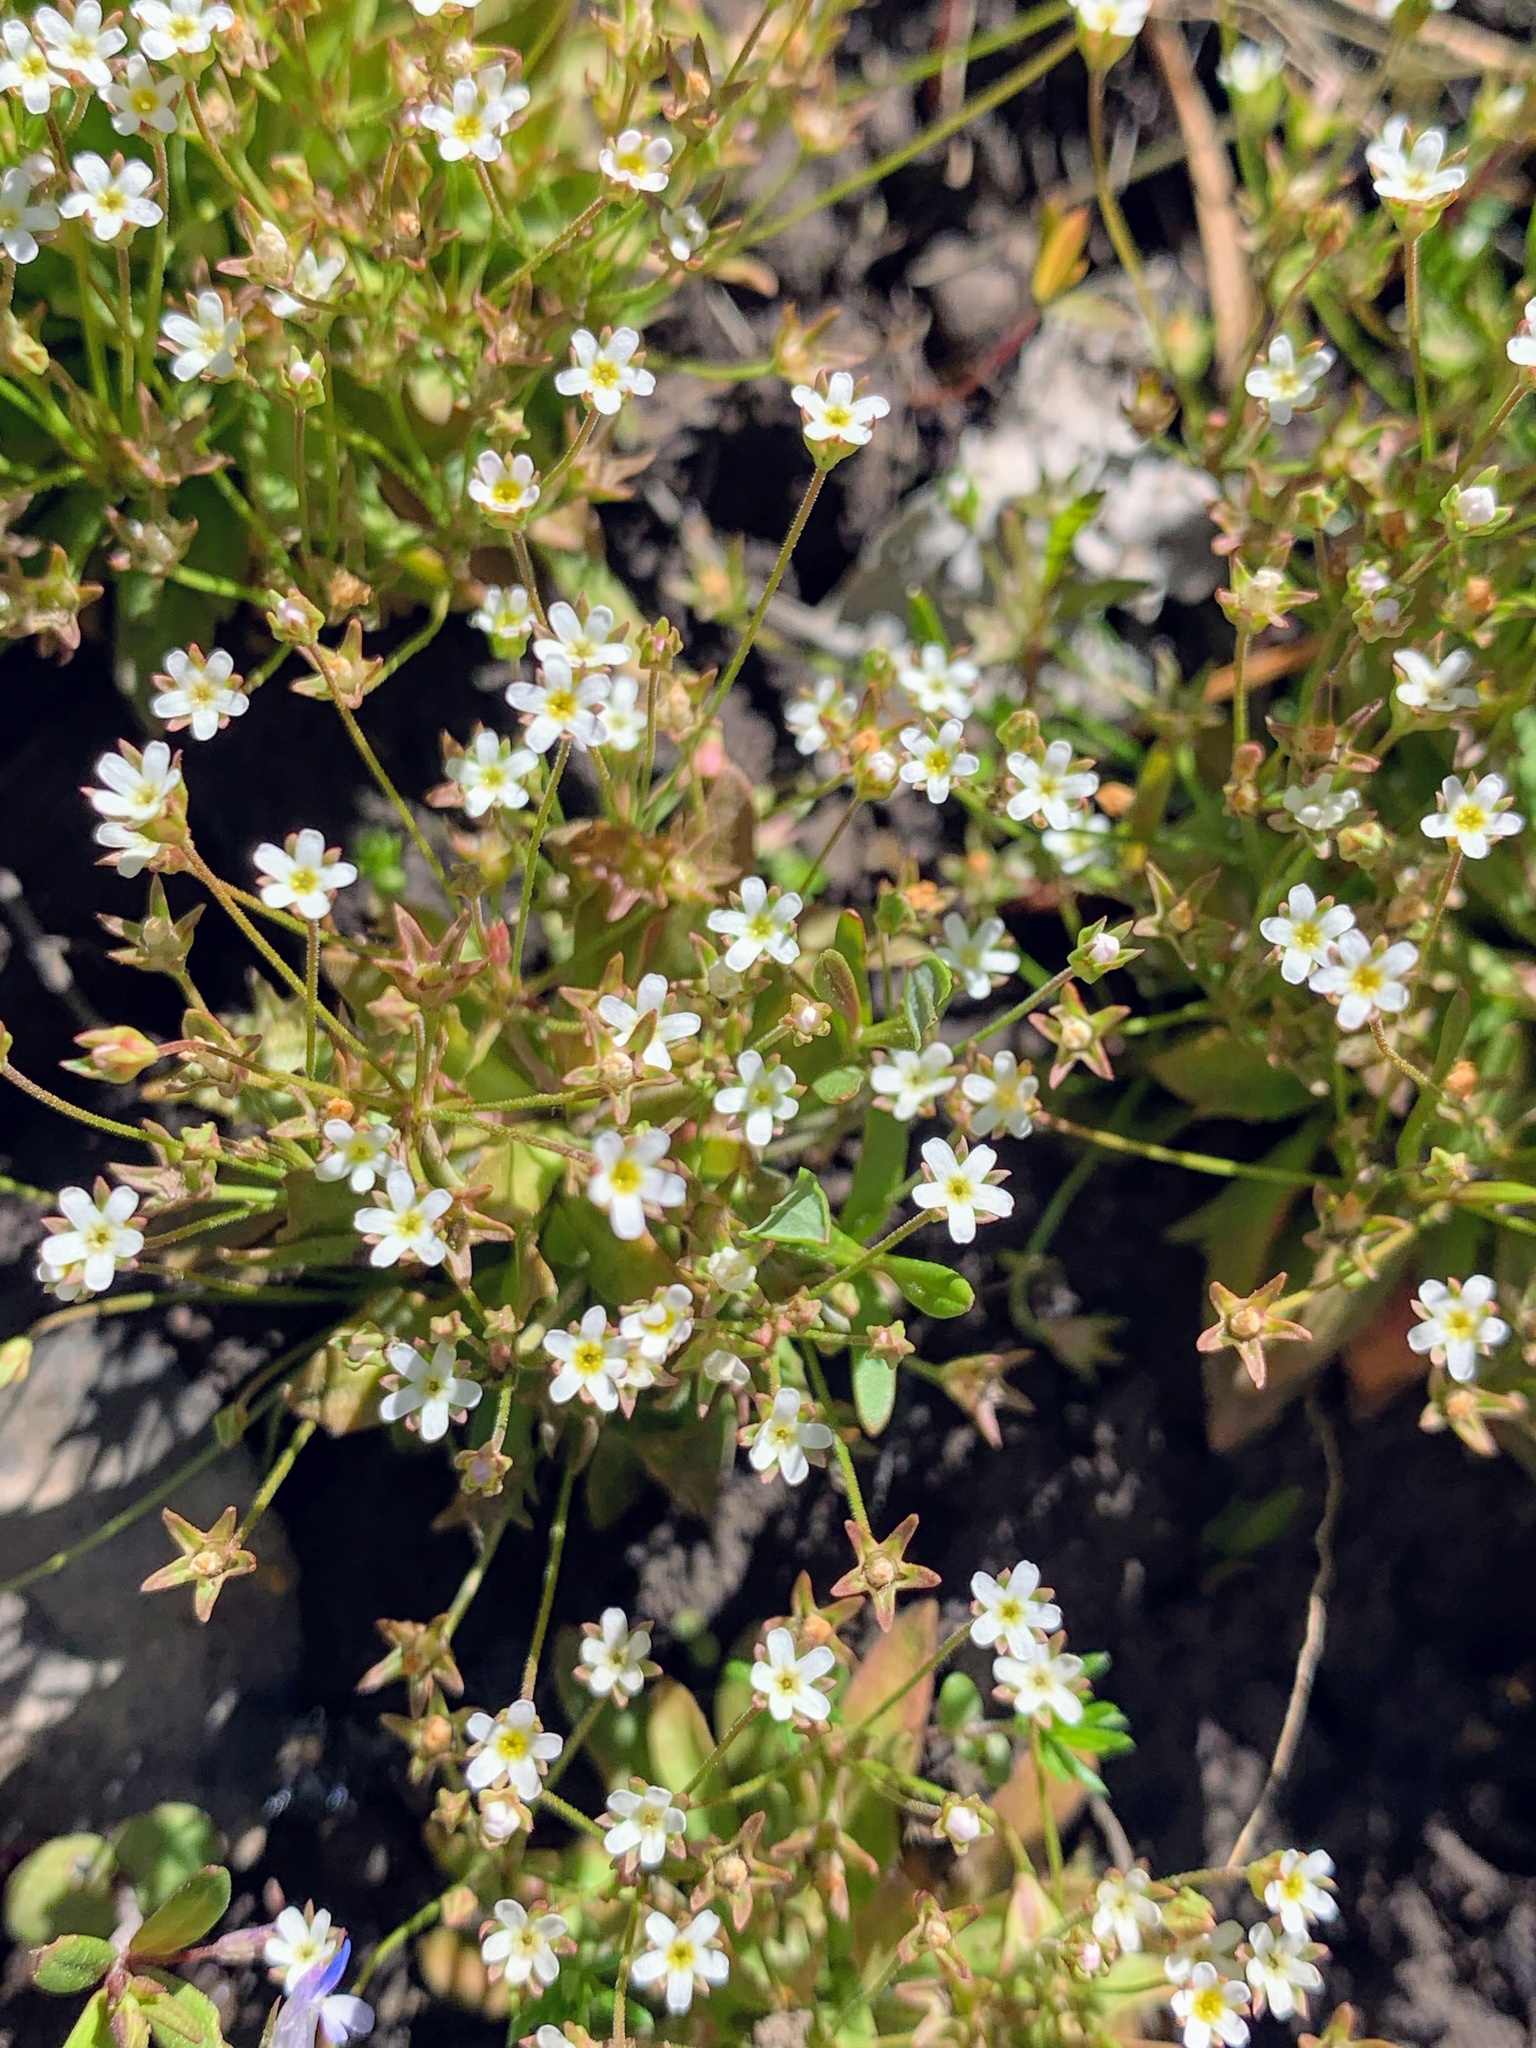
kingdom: Plantae
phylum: Tracheophyta
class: Magnoliopsida
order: Ericales
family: Primulaceae
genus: Androsace
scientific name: Androsace septentrionalis
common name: Hairy northern fairy-candelabra
